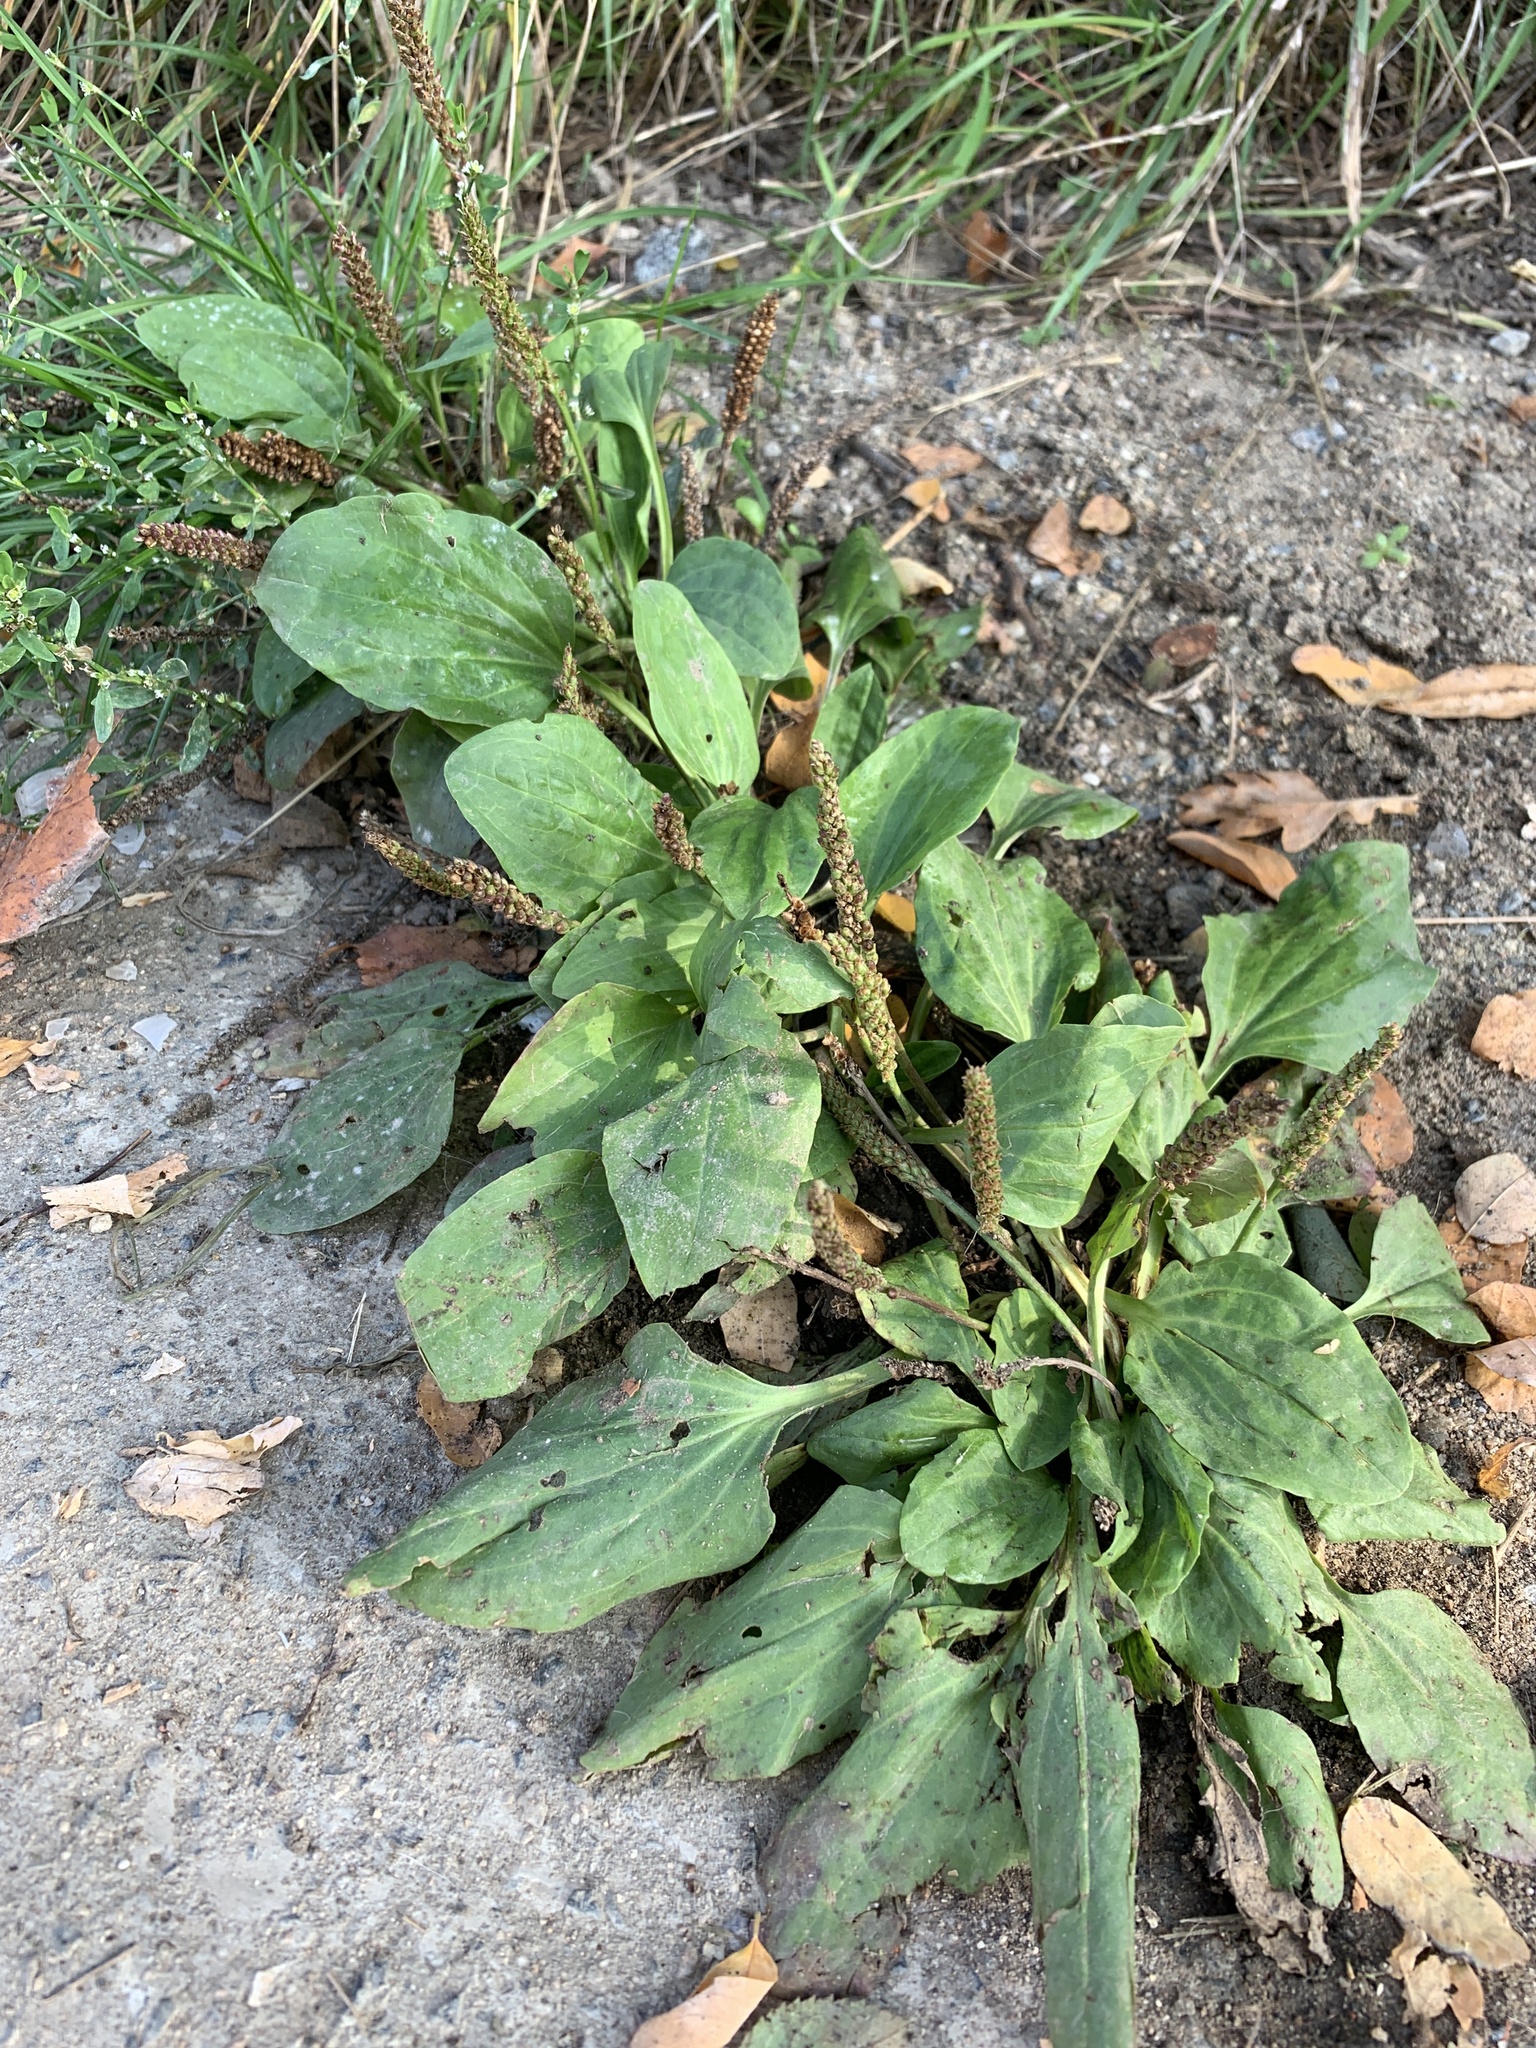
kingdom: Plantae
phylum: Tracheophyta
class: Magnoliopsida
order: Lamiales
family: Plantaginaceae
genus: Plantago
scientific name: Plantago major
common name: Common plantain
